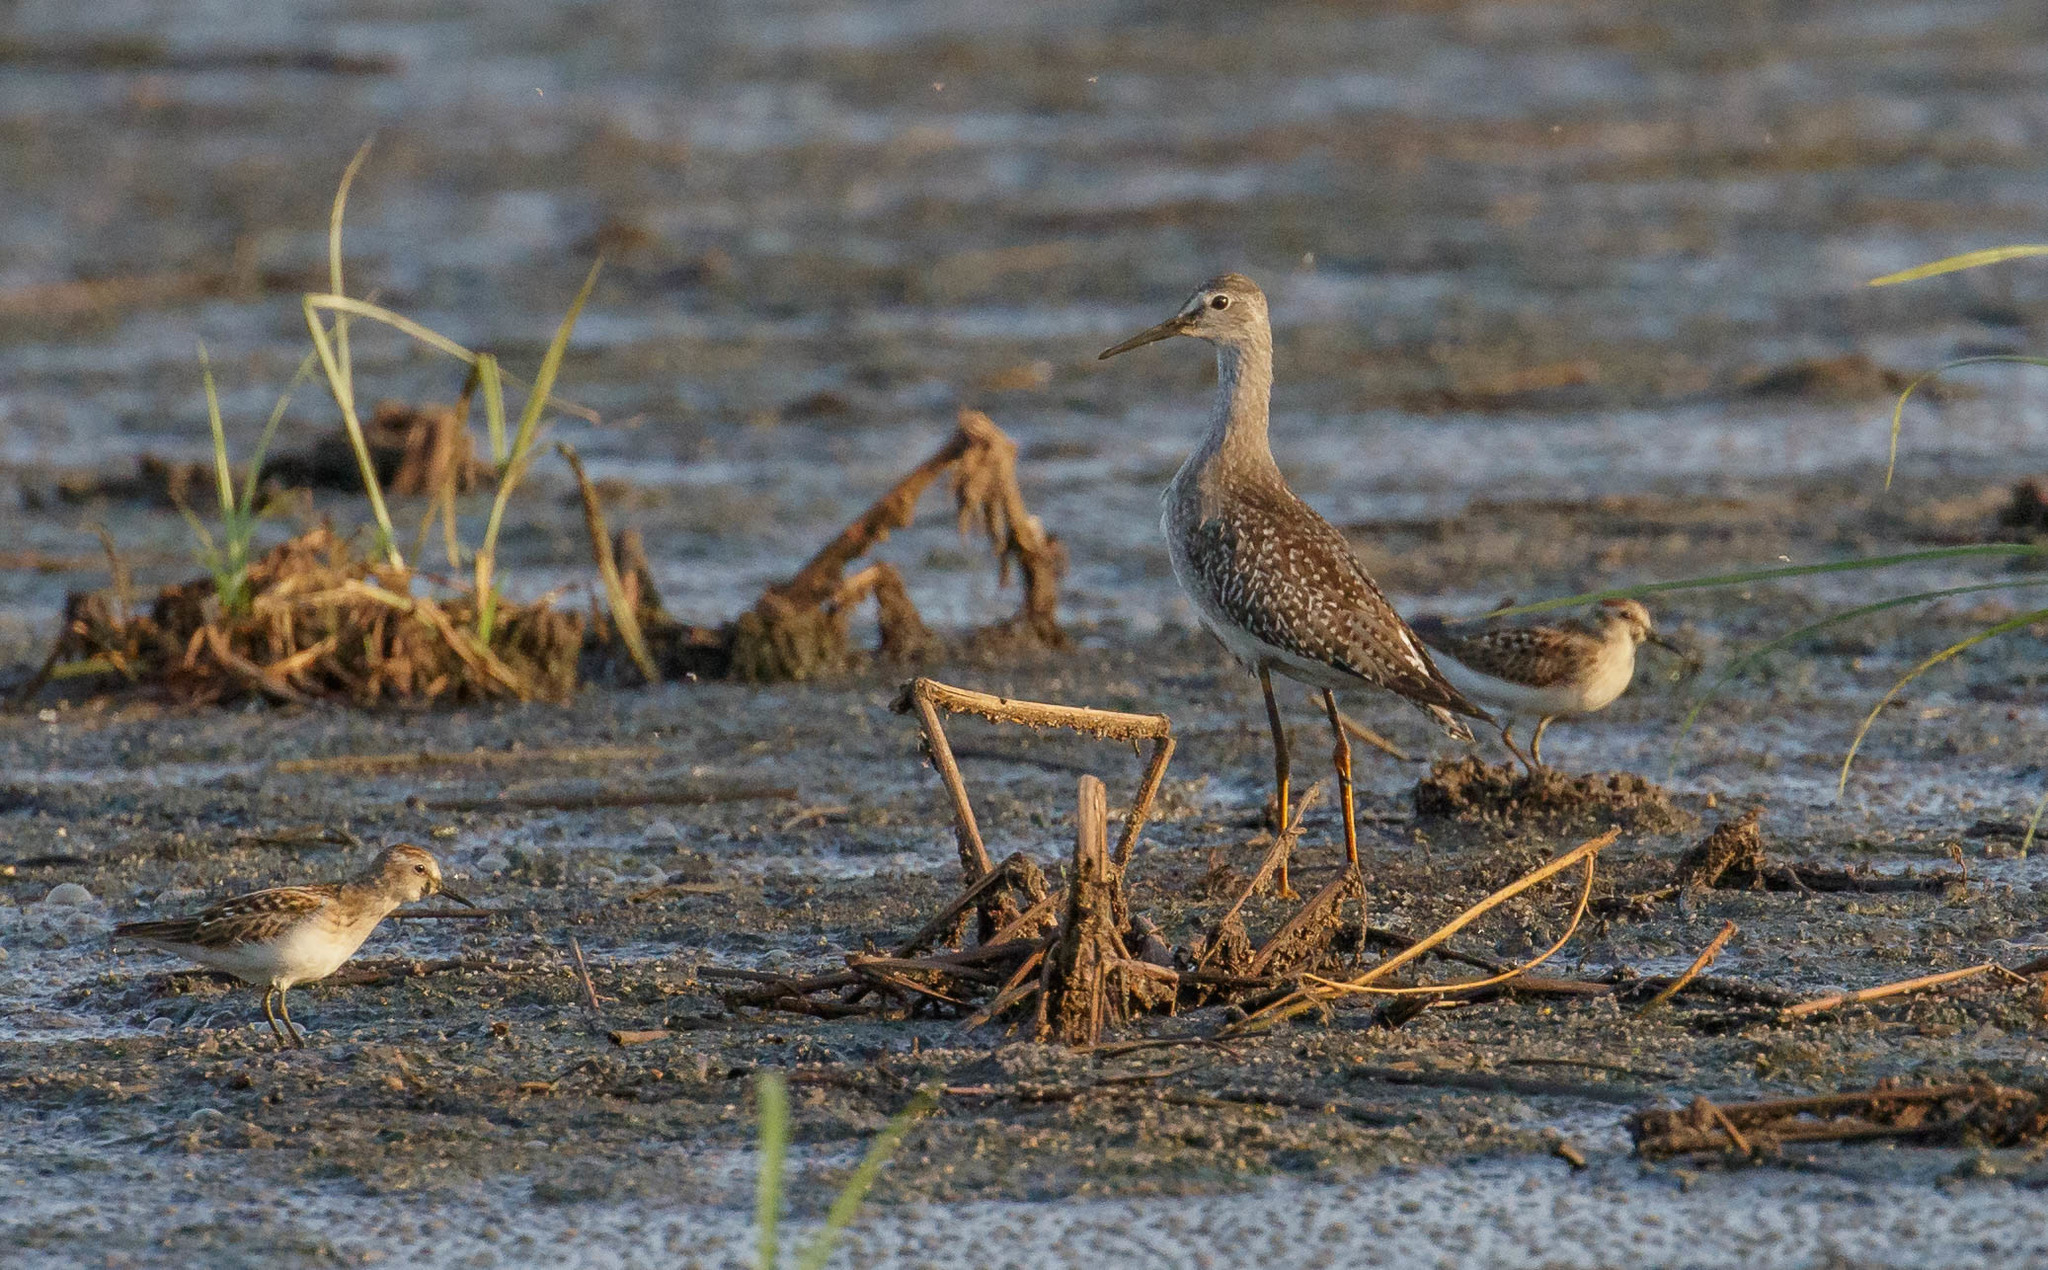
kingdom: Animalia
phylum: Chordata
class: Aves
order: Charadriiformes
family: Scolopacidae
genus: Calidris
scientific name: Calidris minutilla
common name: Least sandpiper
